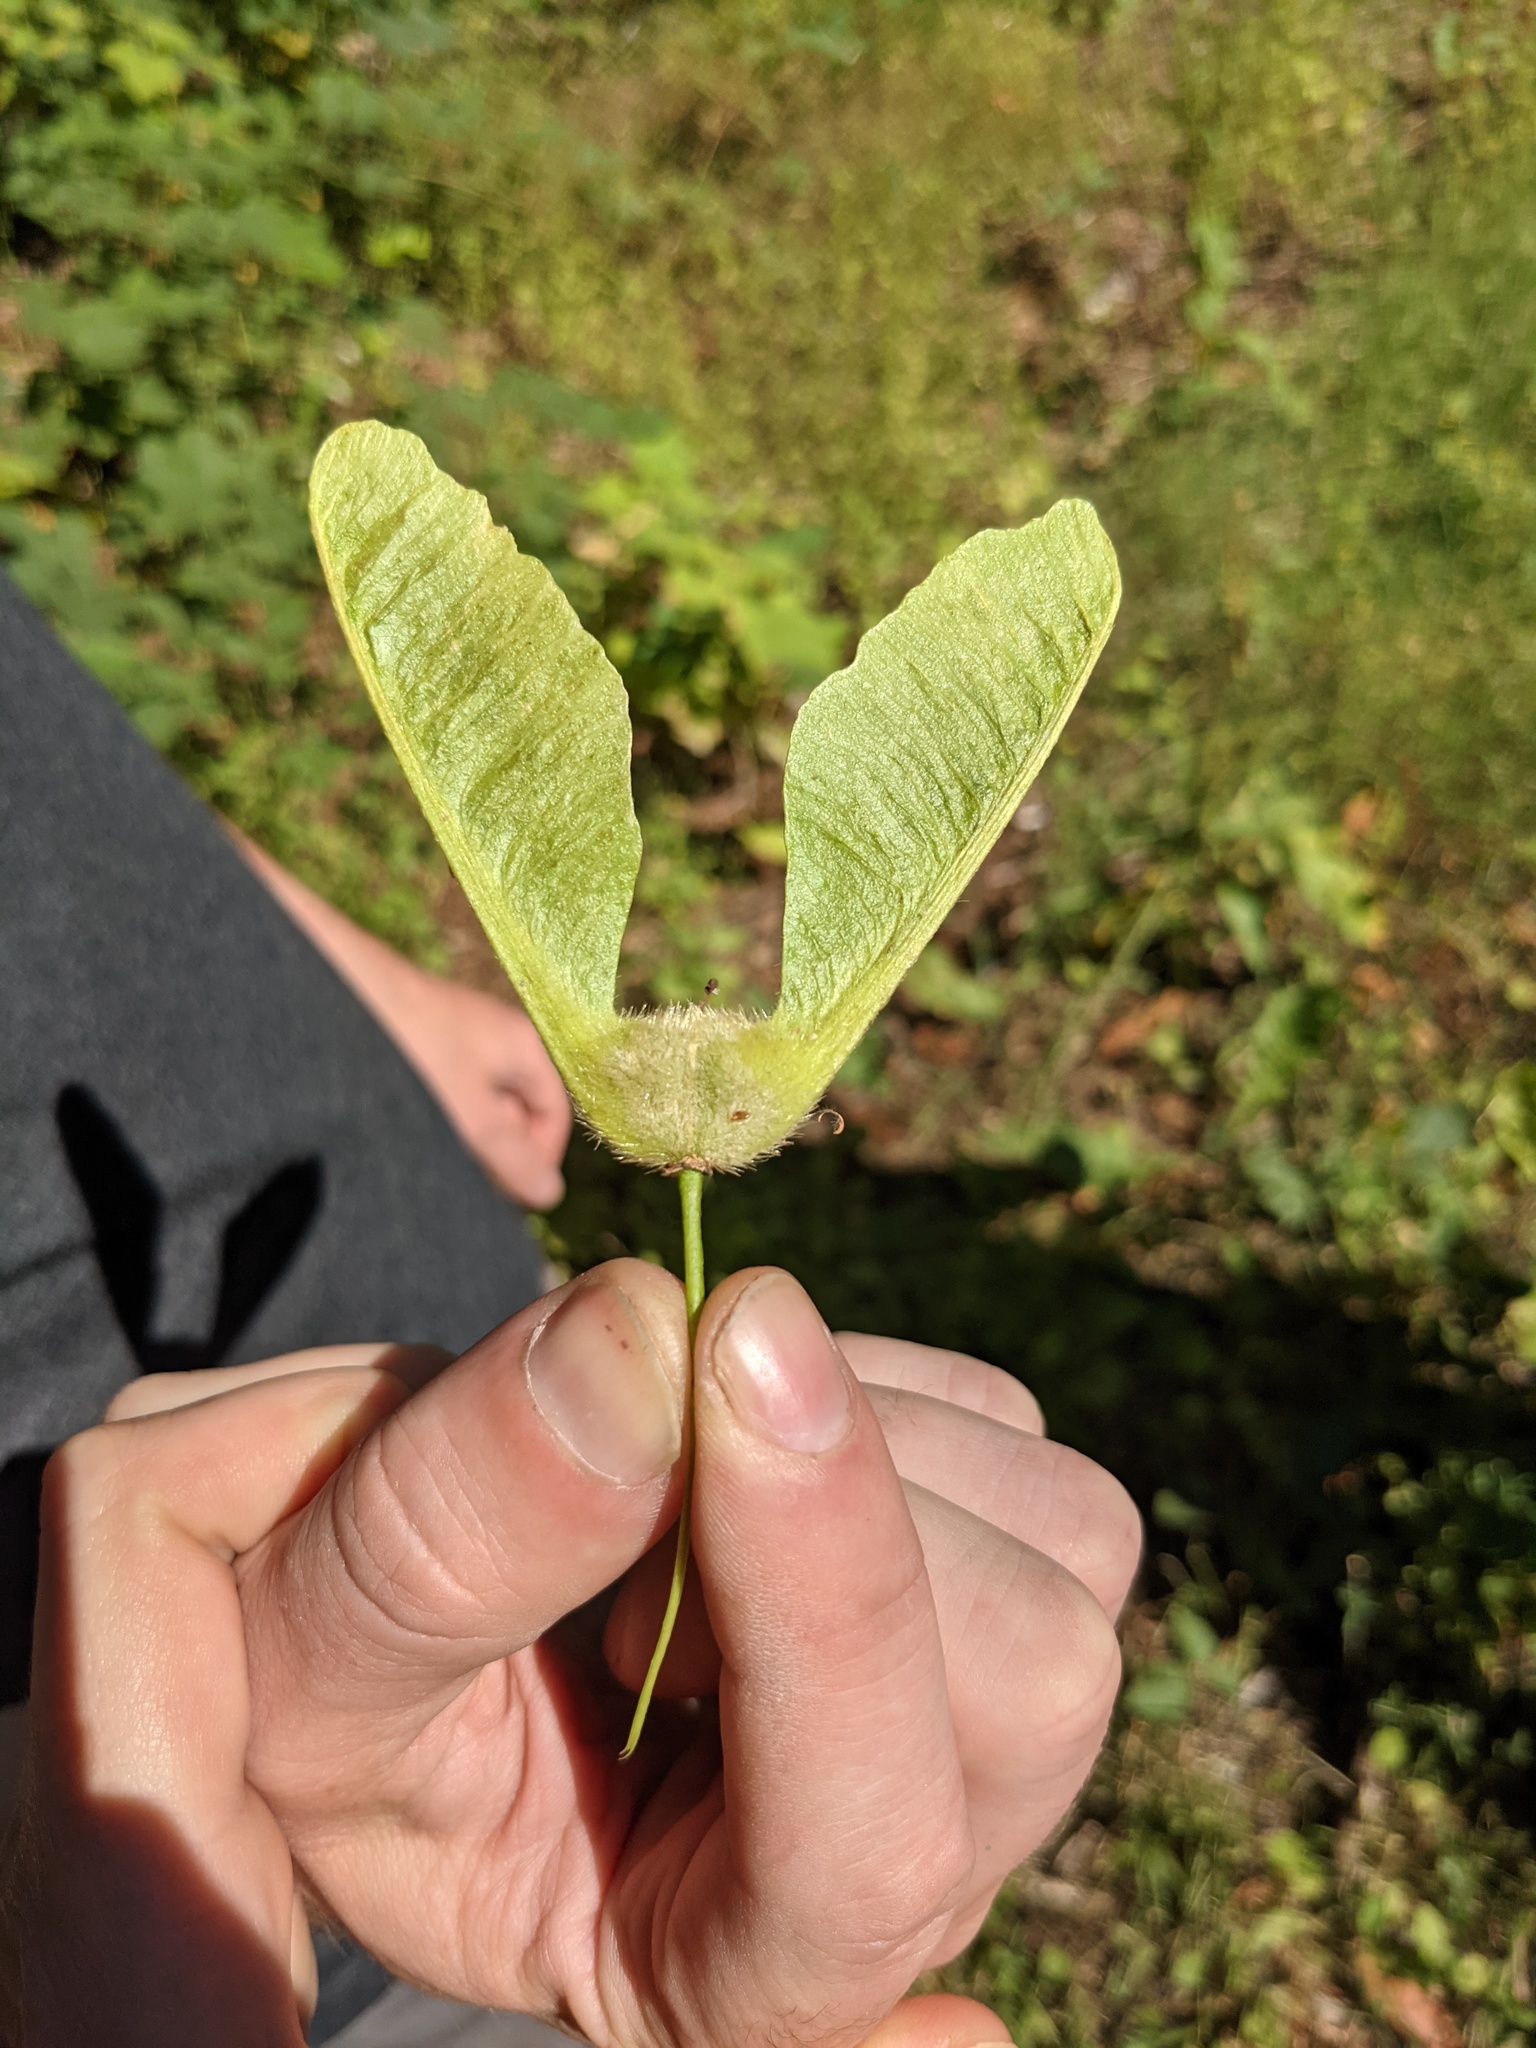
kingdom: Plantae
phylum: Tracheophyta
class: Magnoliopsida
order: Sapindales
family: Sapindaceae
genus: Acer
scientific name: Acer macrophyllum
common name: Oregon maple
